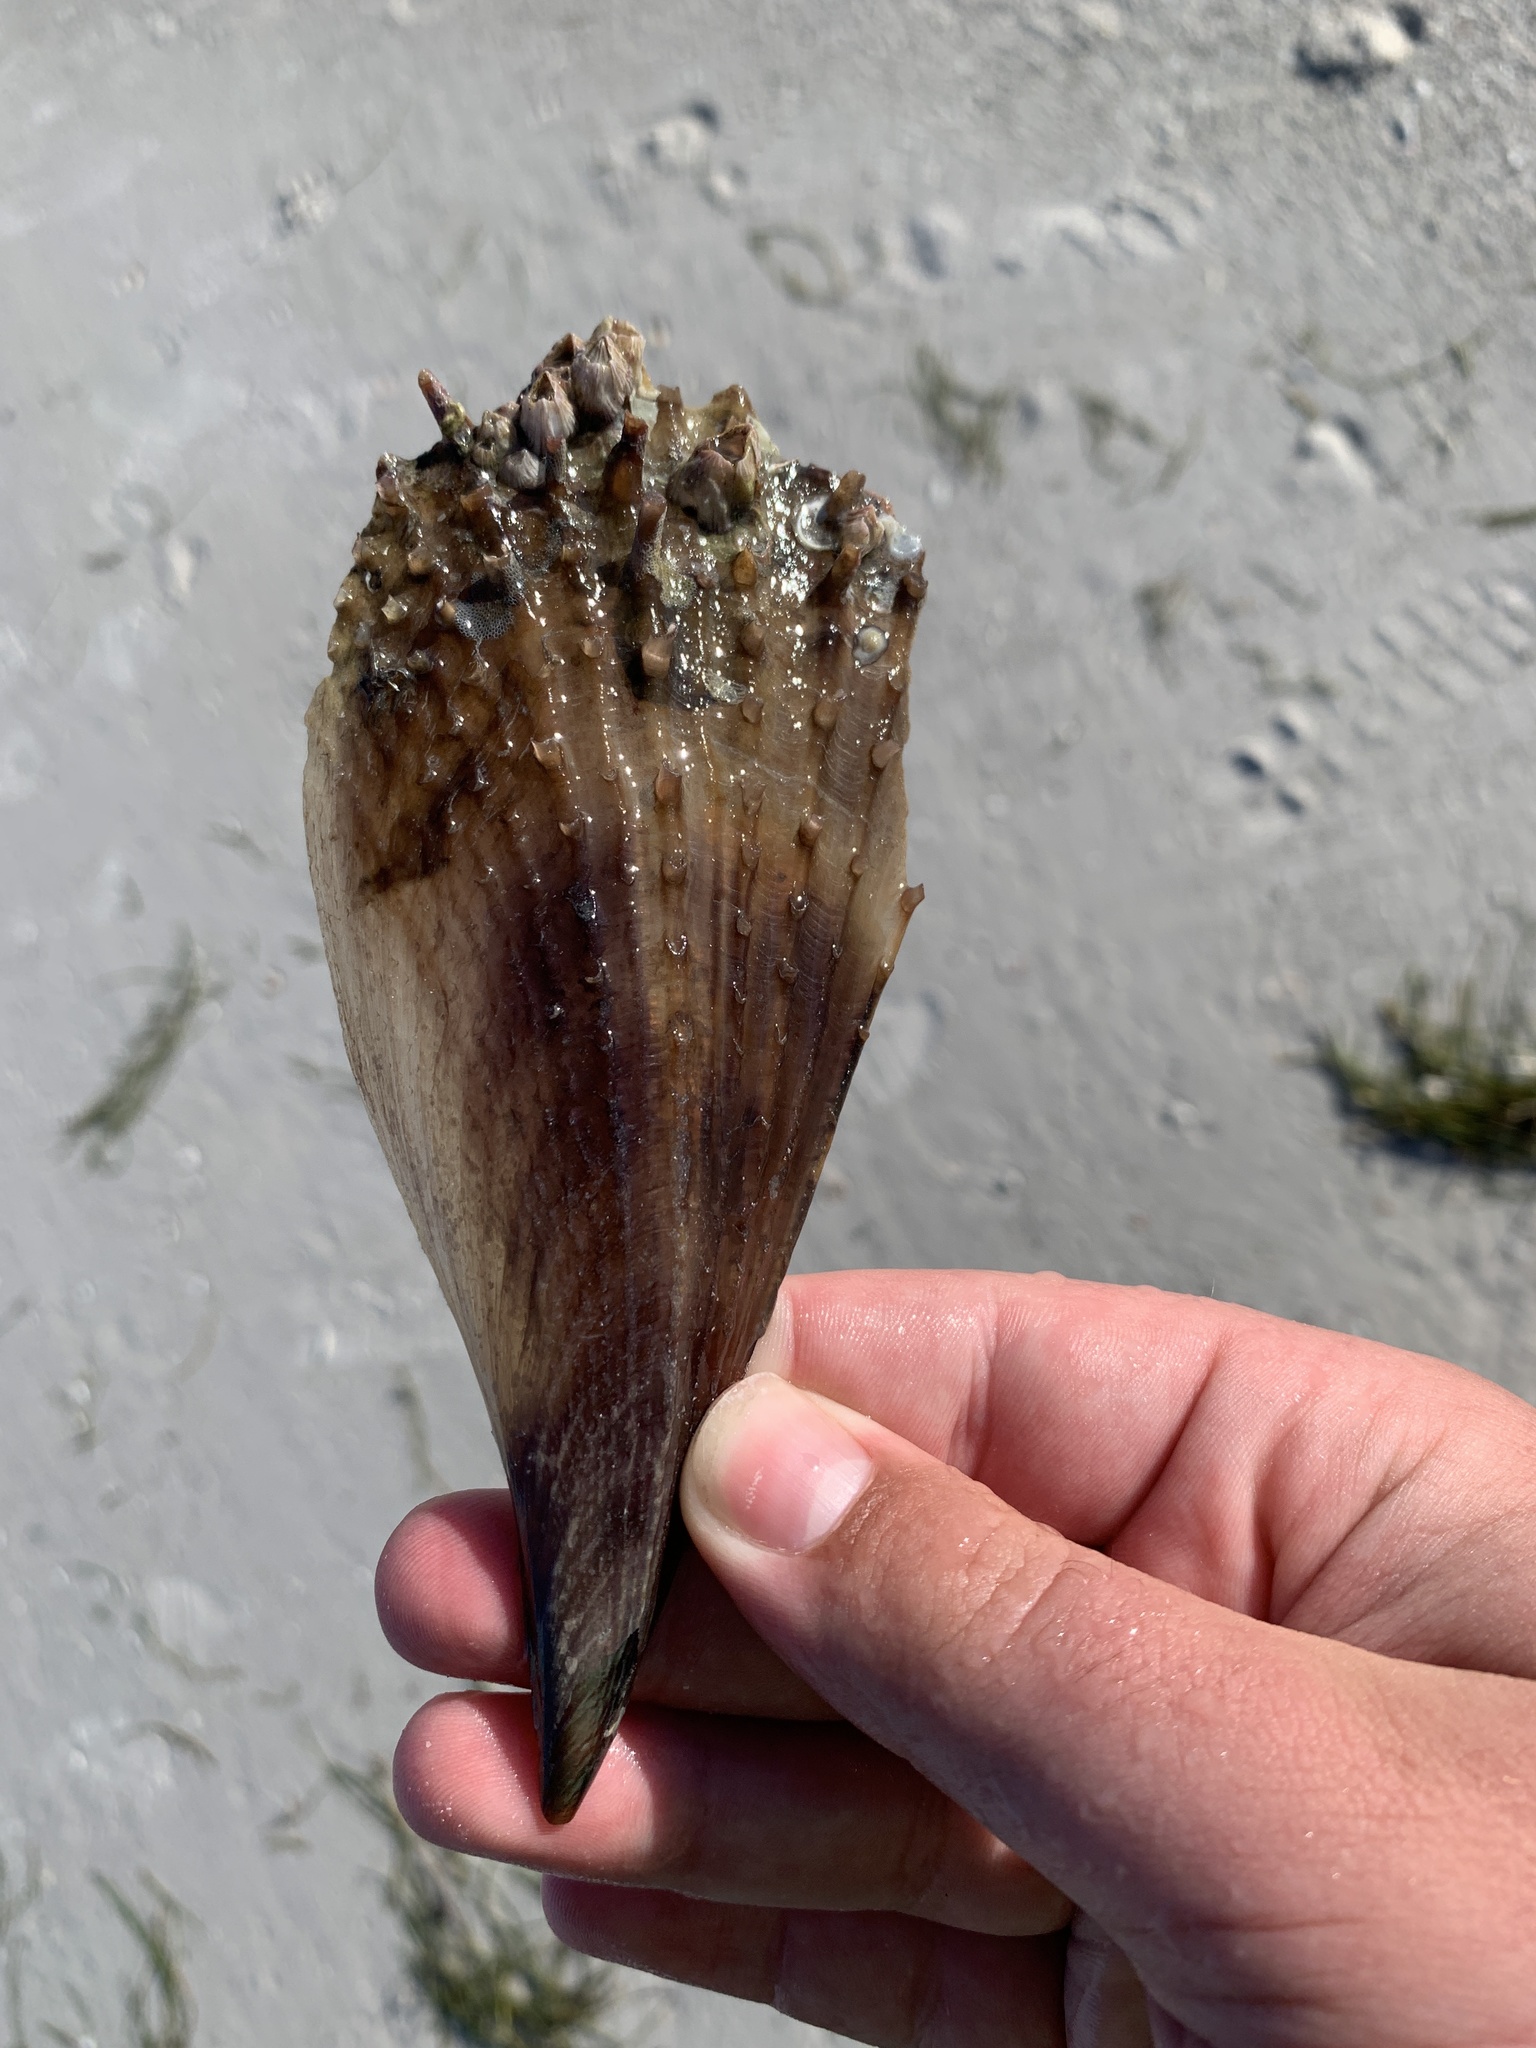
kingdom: Animalia
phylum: Mollusca
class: Bivalvia
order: Ostreida
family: Pinnidae
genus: Atrina
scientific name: Atrina rigida
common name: Stiff penshell
